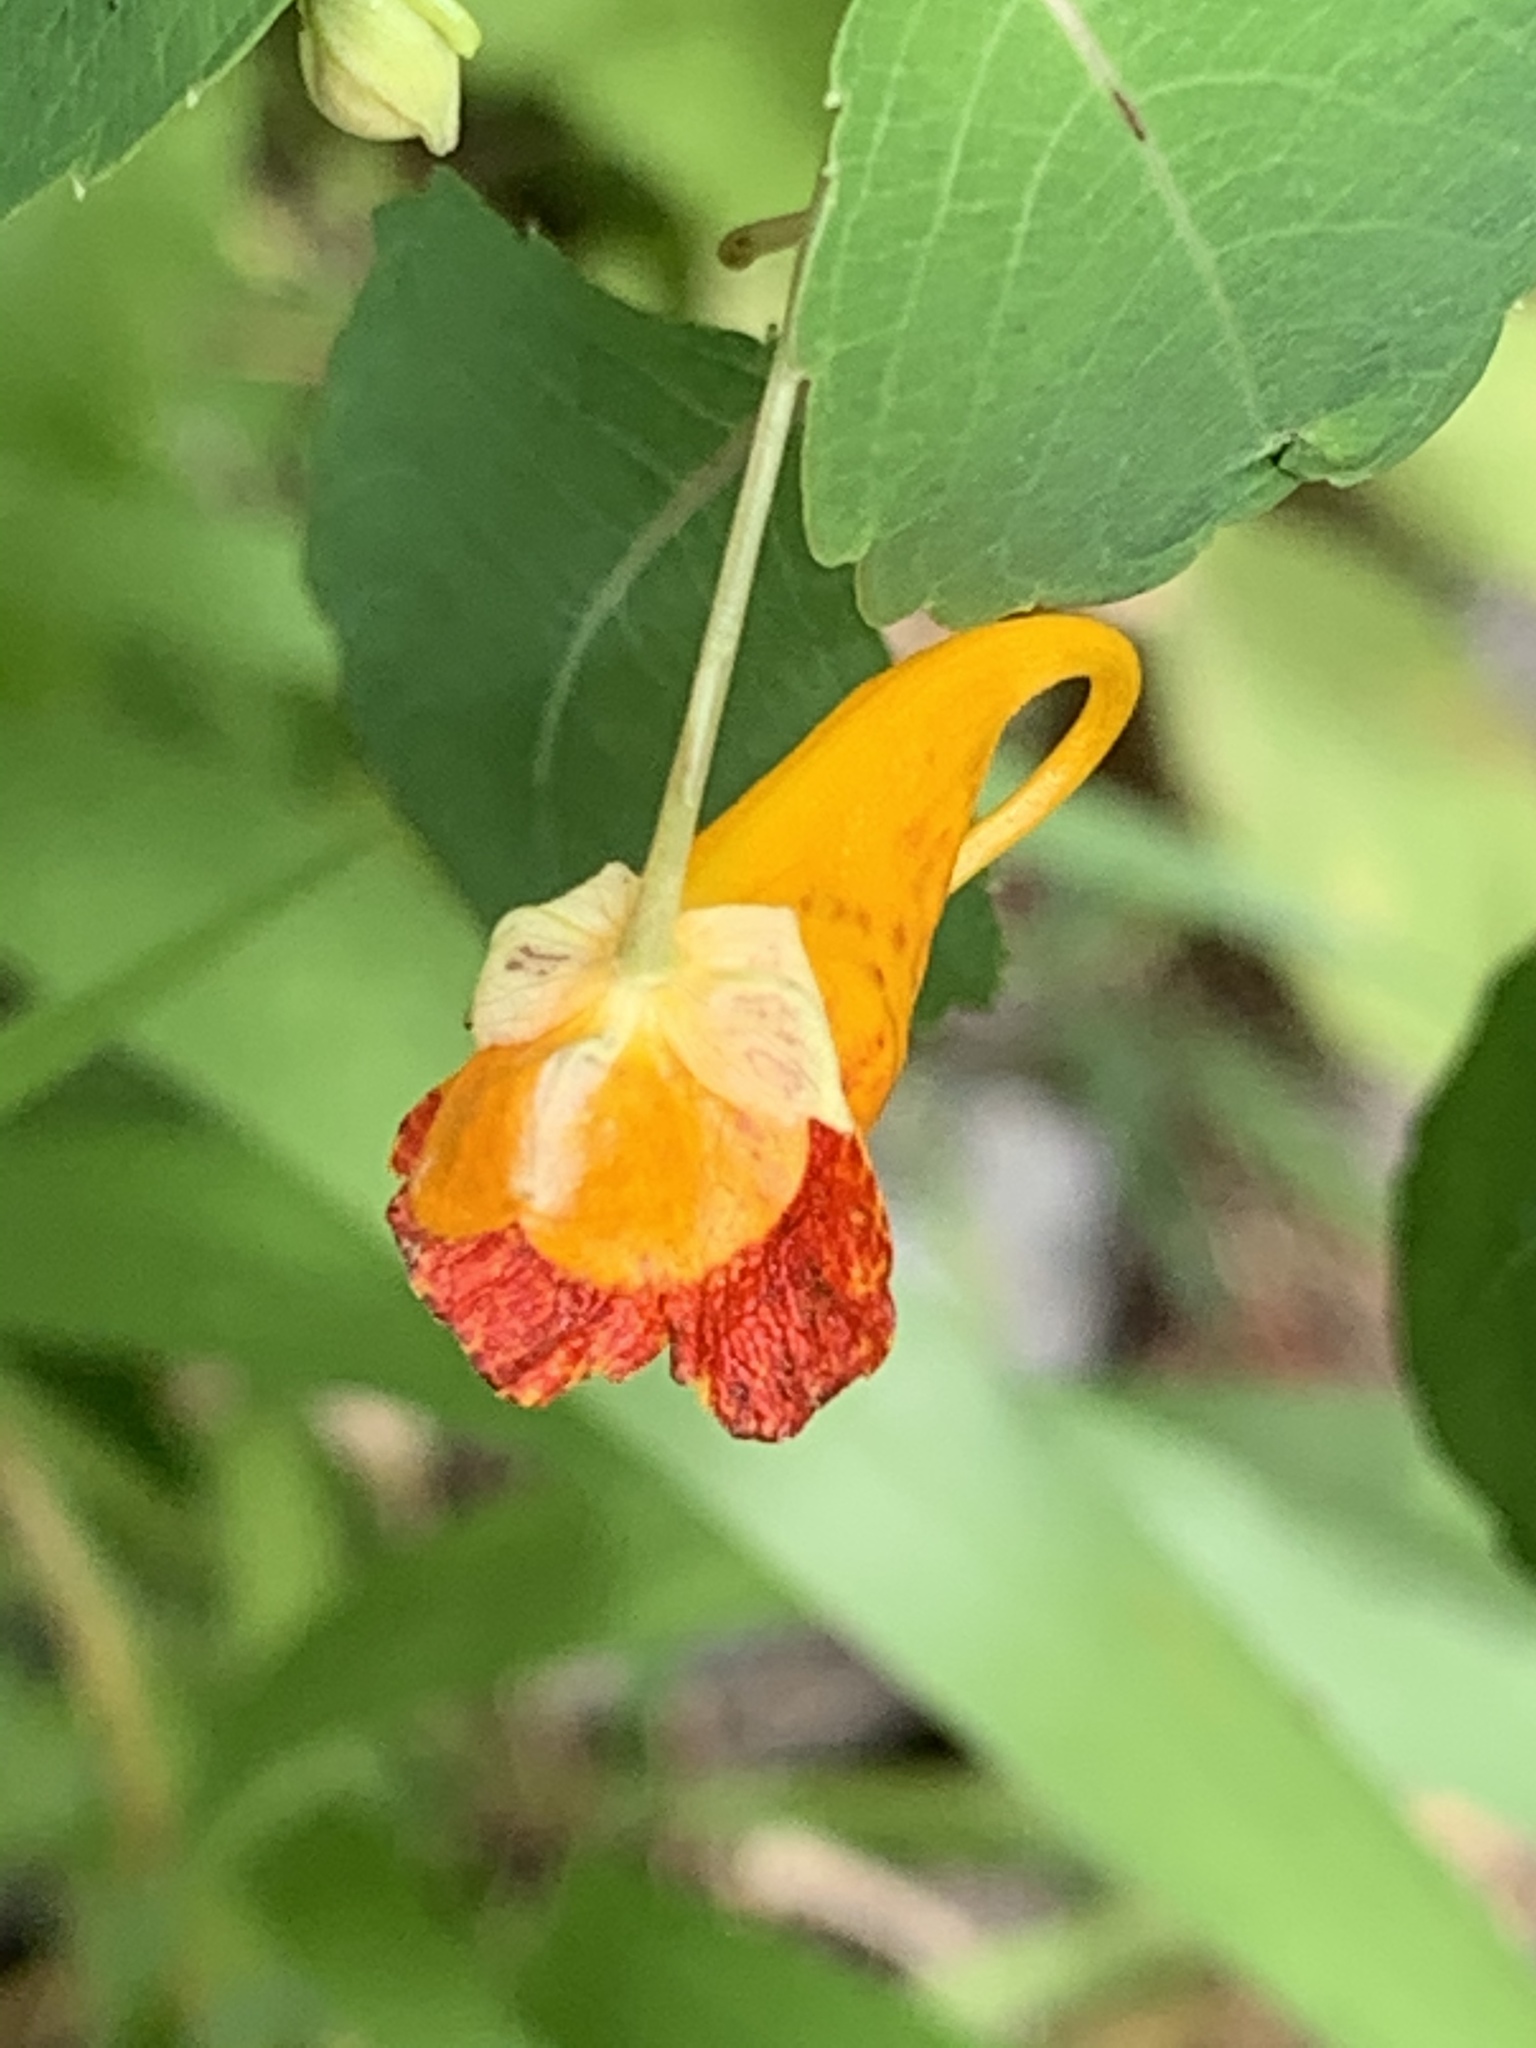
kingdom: Plantae
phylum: Tracheophyta
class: Magnoliopsida
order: Ericales
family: Balsaminaceae
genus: Impatiens
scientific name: Impatiens capensis
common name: Orange balsam
